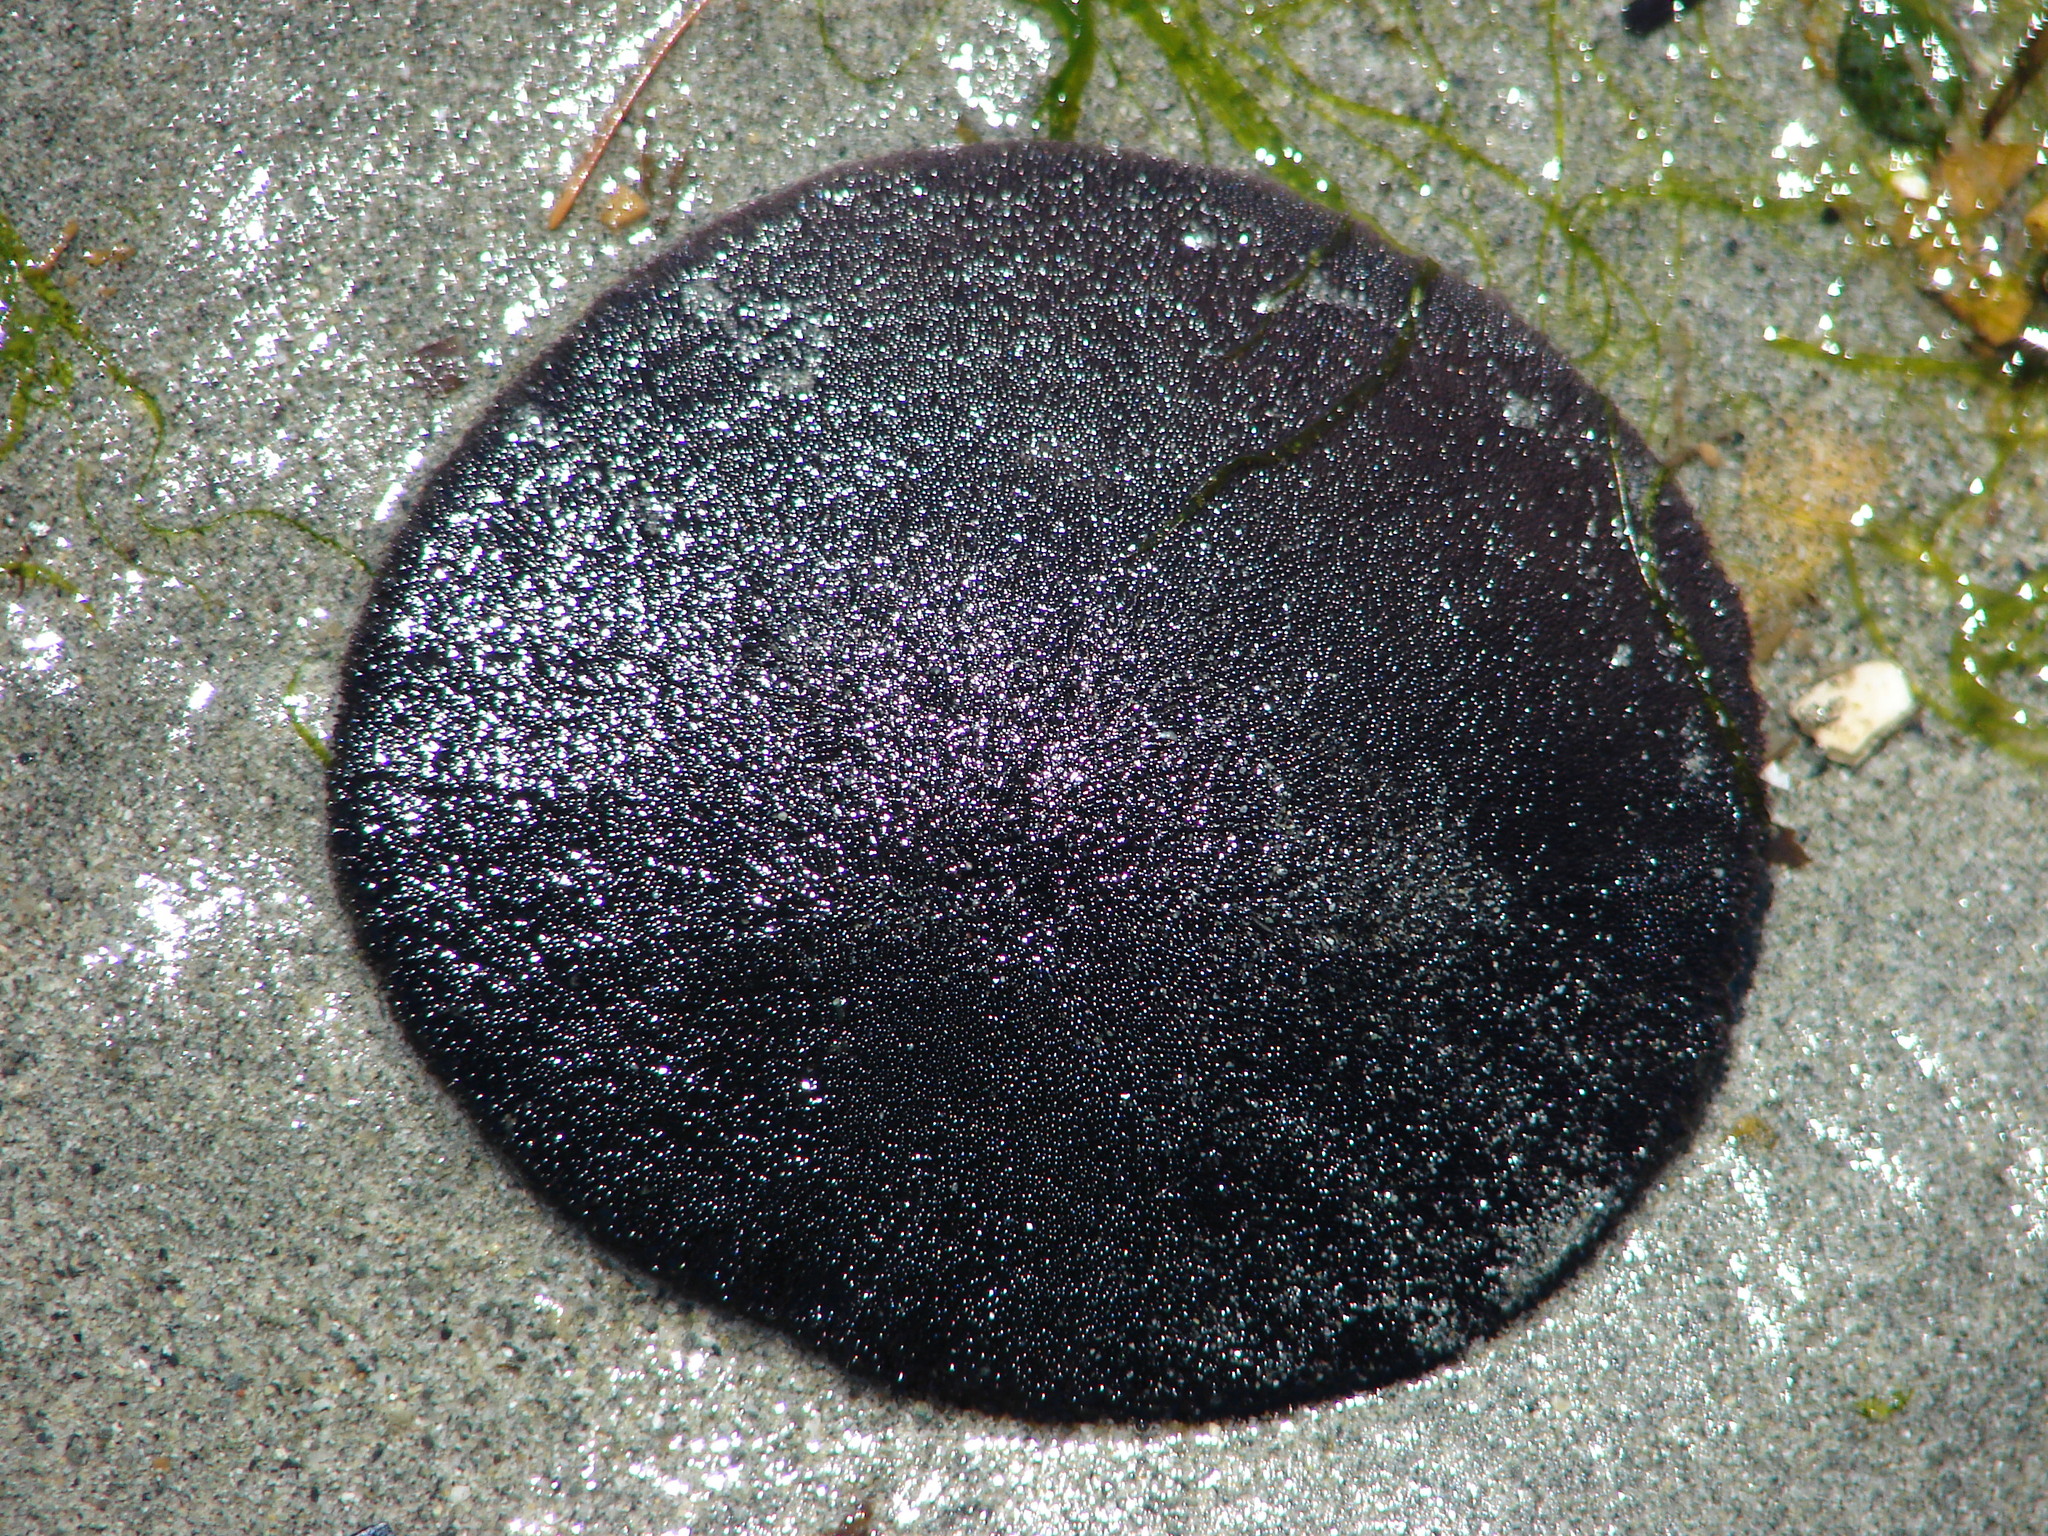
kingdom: Animalia
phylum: Echinodermata
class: Echinoidea
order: Echinolampadacea
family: Dendrasteridae
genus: Dendraster
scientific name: Dendraster excentricus
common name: Eccentric sand dollar sea urchin
